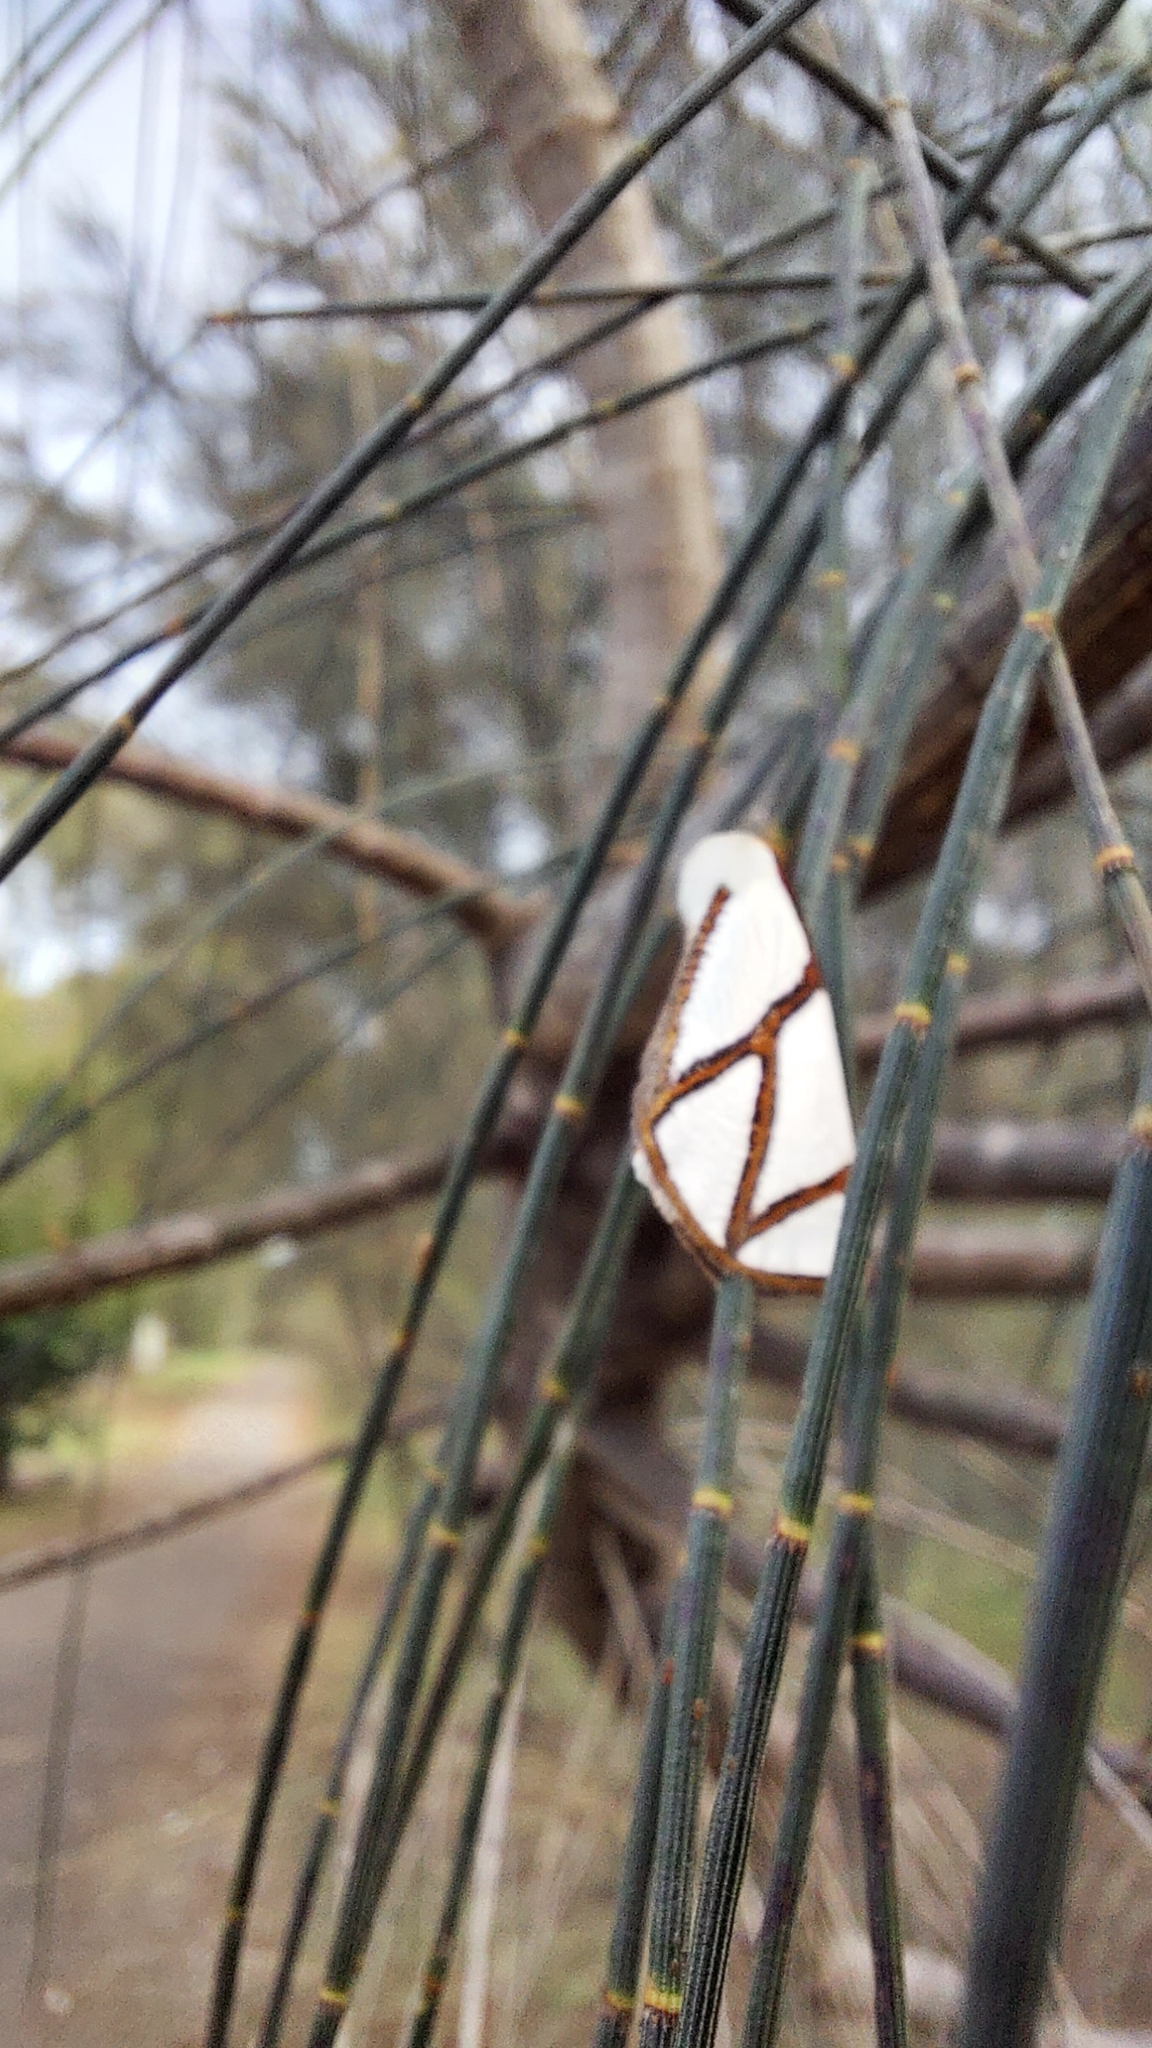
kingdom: Animalia
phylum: Arthropoda
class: Insecta
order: Lepidoptera
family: Geometridae
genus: Thalaina
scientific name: Thalaina clara
